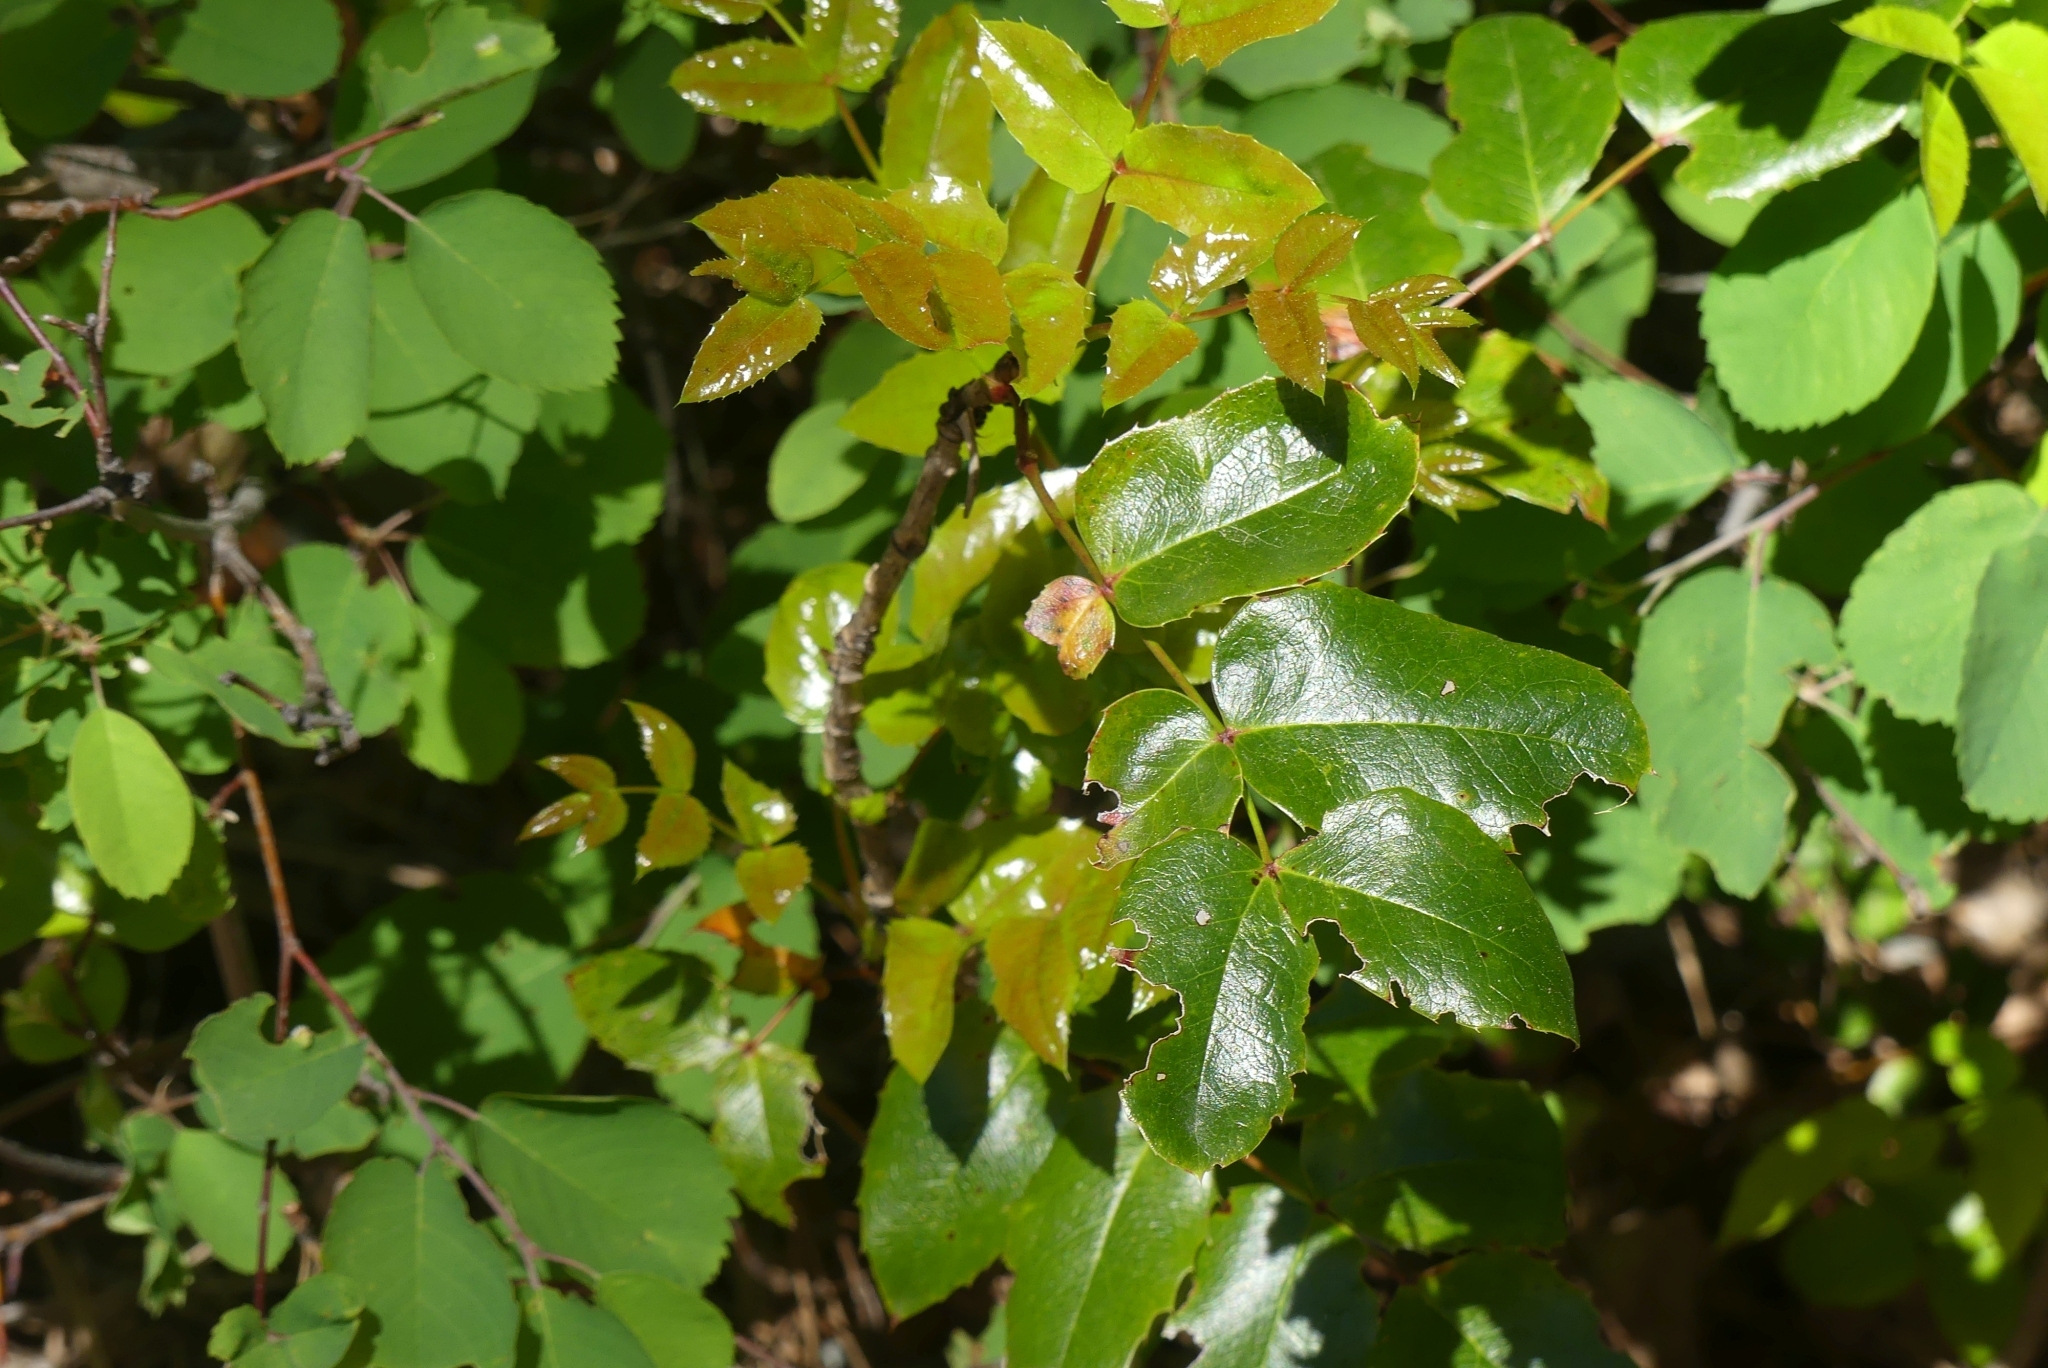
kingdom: Plantae
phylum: Tracheophyta
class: Magnoliopsida
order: Ranunculales
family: Berberidaceae
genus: Mahonia
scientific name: Mahonia aquifolium
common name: Oregon-grape
